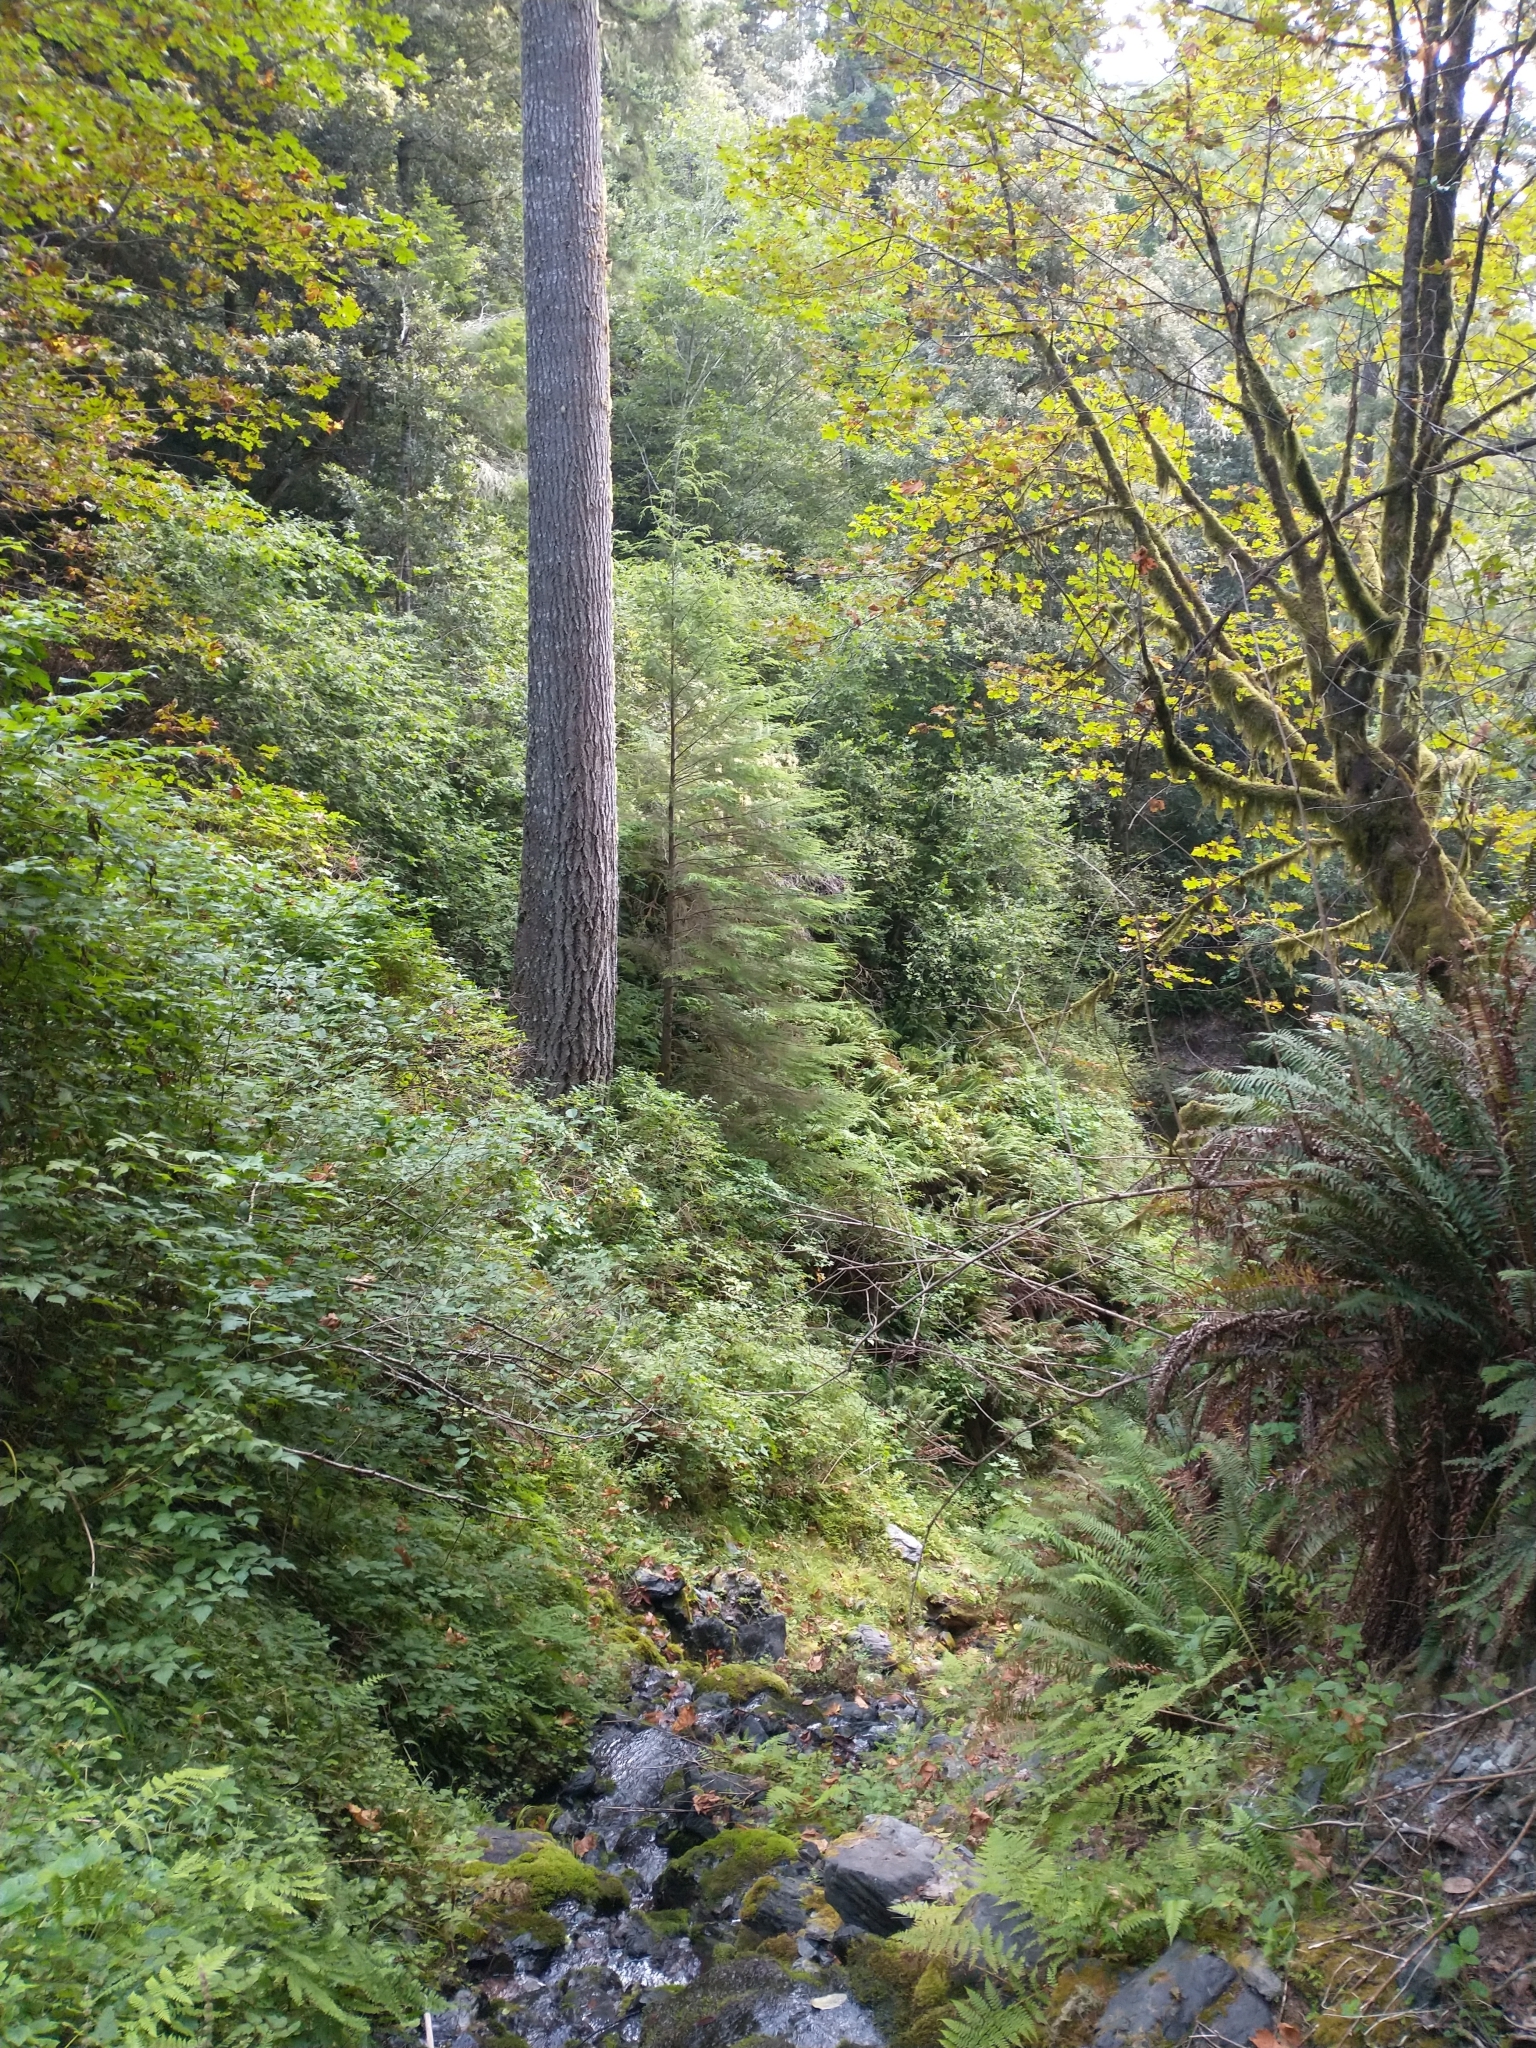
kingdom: Plantae
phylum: Tracheophyta
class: Pinopsida
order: Pinales
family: Pinaceae
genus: Pseudotsuga
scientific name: Pseudotsuga menziesii
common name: Douglas fir
